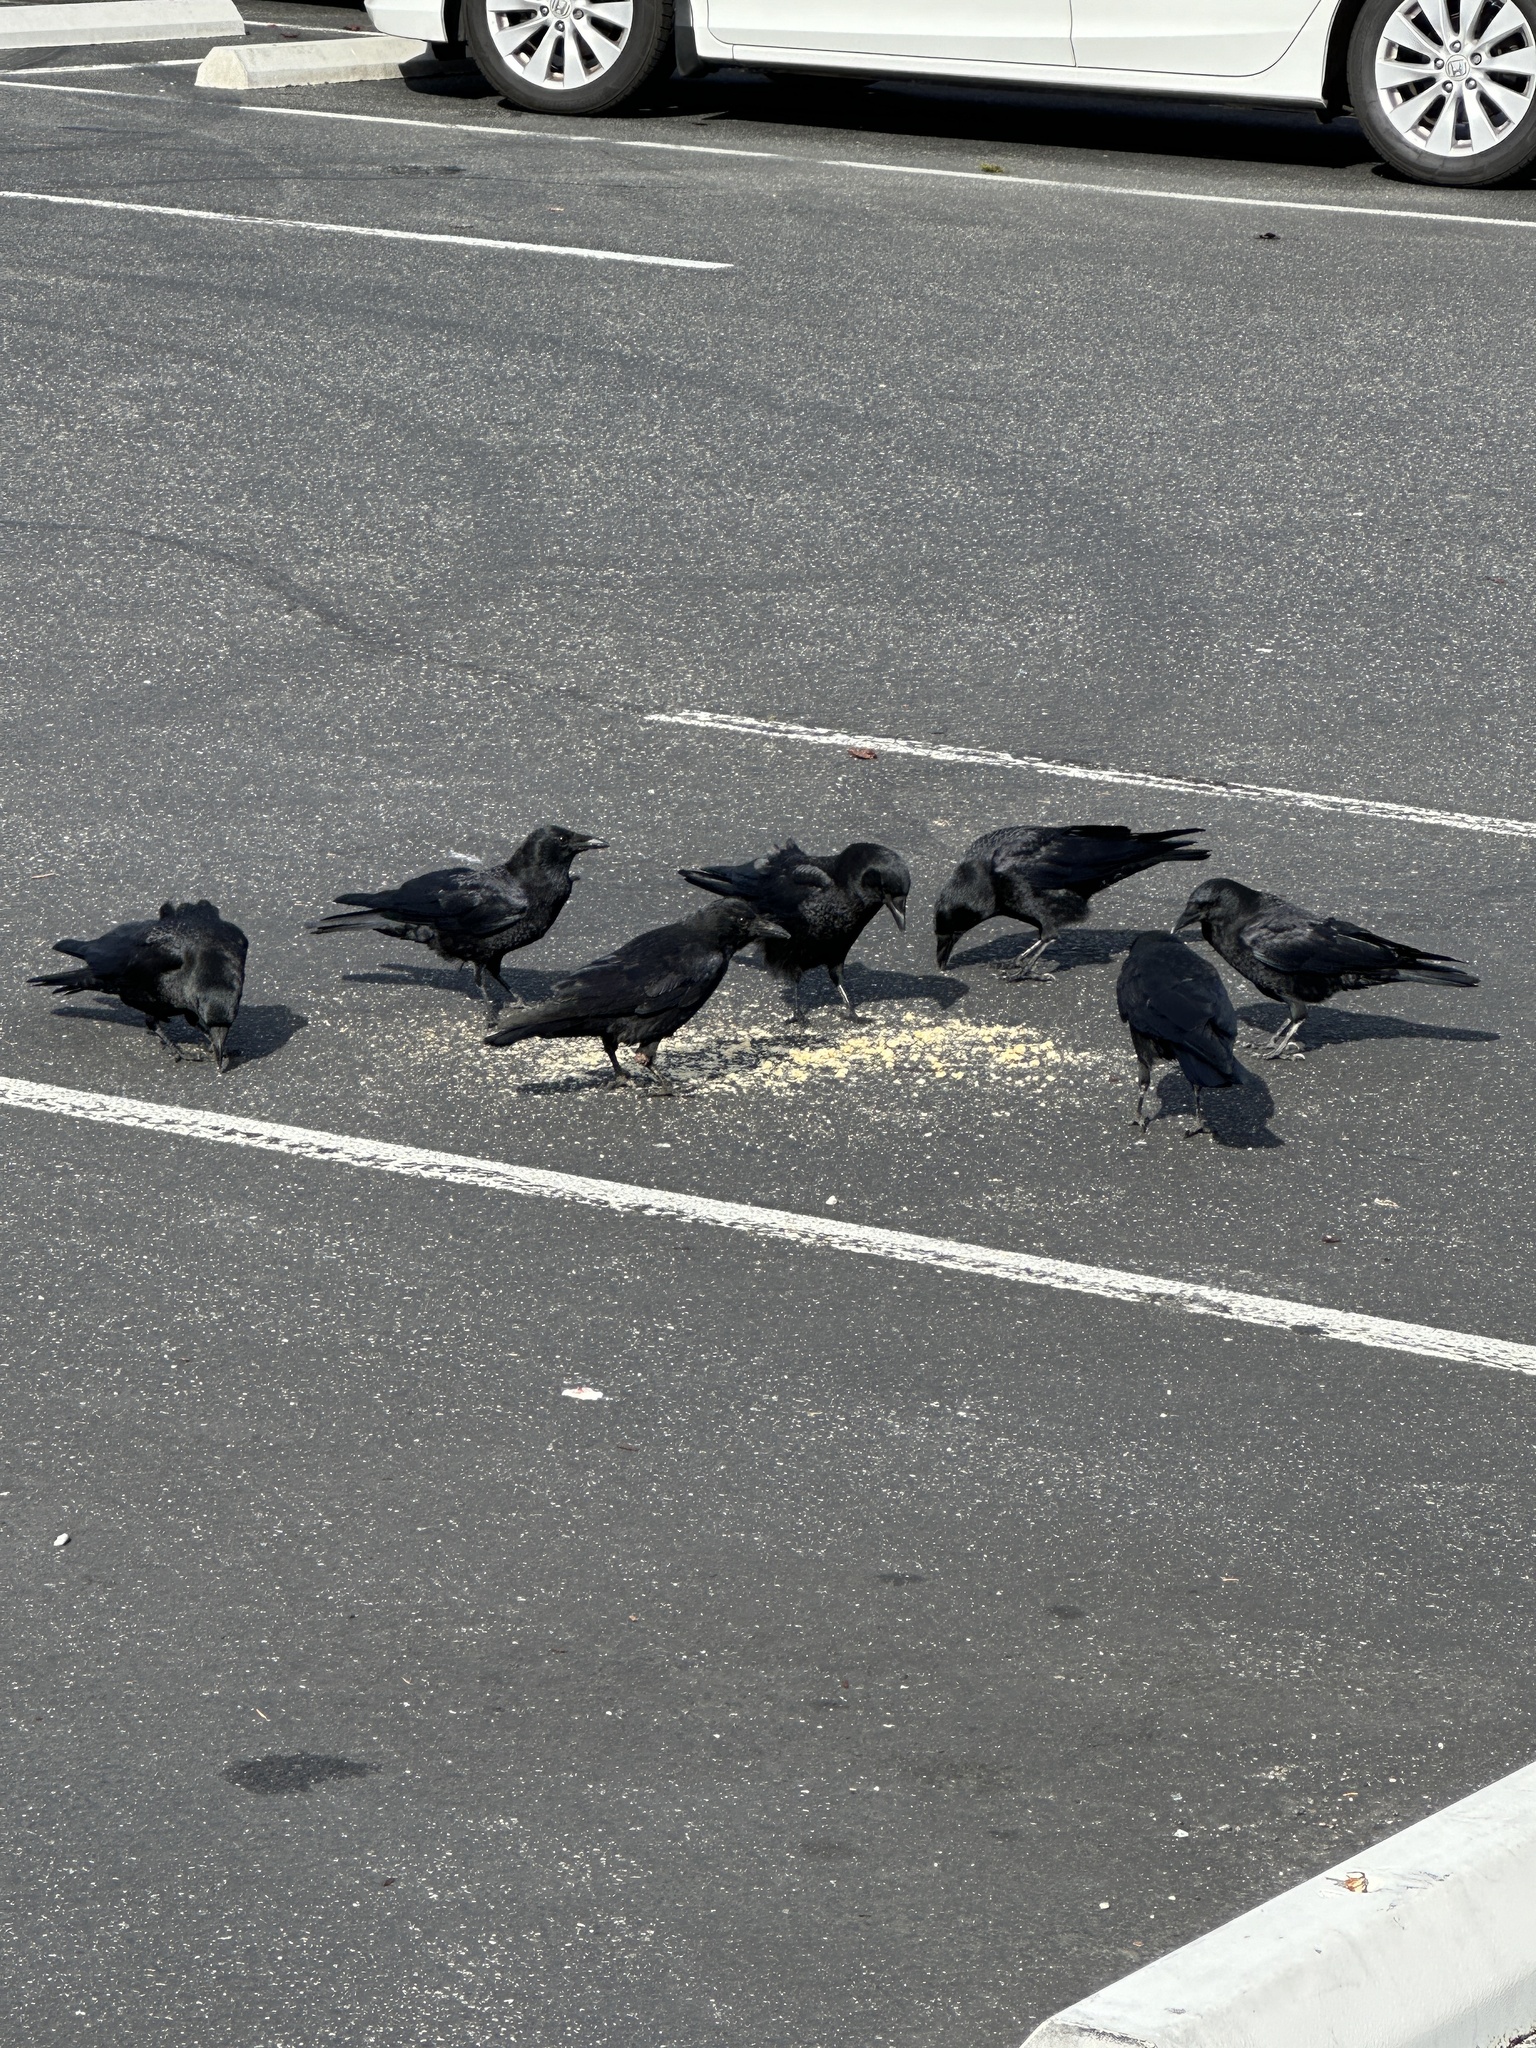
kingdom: Animalia
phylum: Chordata
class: Aves
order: Passeriformes
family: Corvidae
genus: Corvus
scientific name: Corvus brachyrhynchos
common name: American crow
